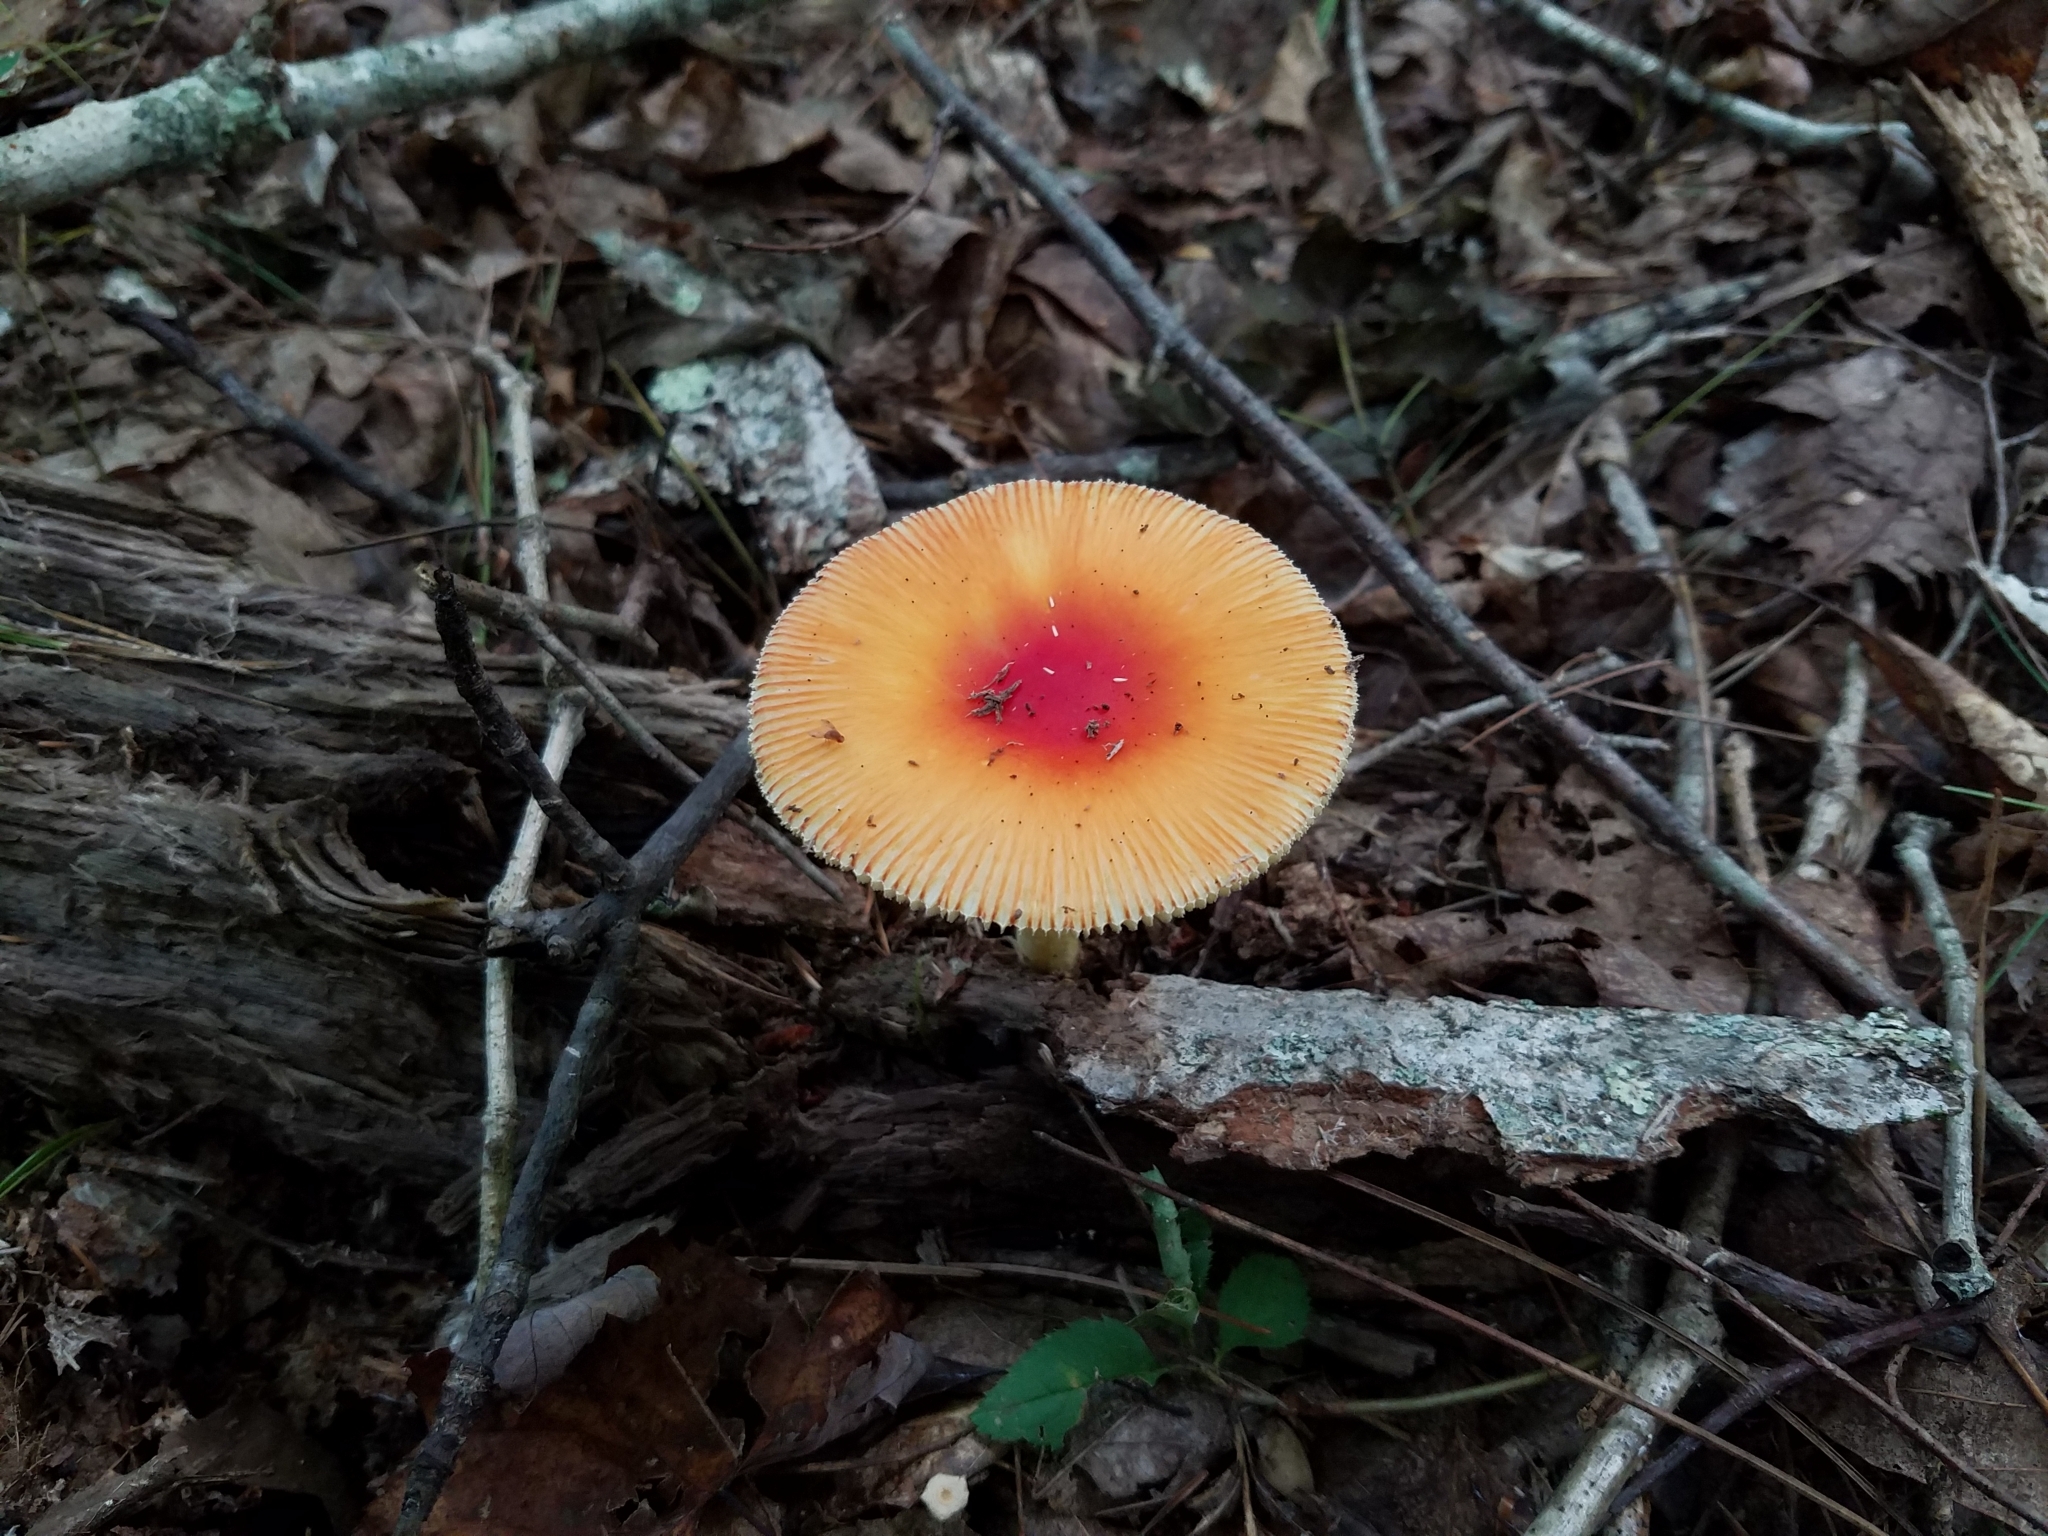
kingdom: Fungi
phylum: Basidiomycota
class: Agaricomycetes
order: Agaricales
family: Amanitaceae
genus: Amanita
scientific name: Amanita parcivolvata
